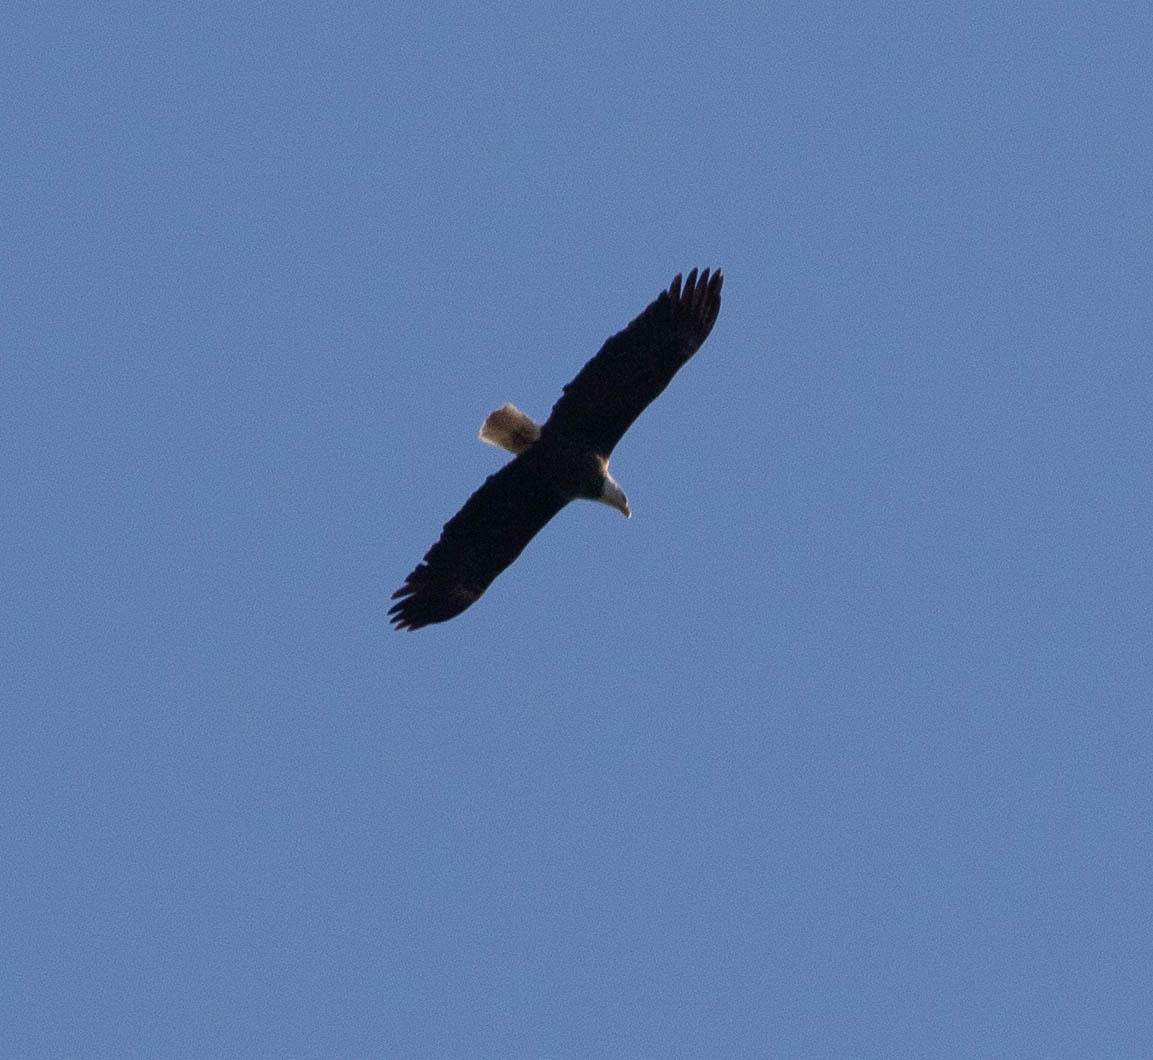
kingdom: Animalia
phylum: Chordata
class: Aves
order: Accipitriformes
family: Accipitridae
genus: Haliaeetus
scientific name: Haliaeetus leucocephalus
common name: Bald eagle
